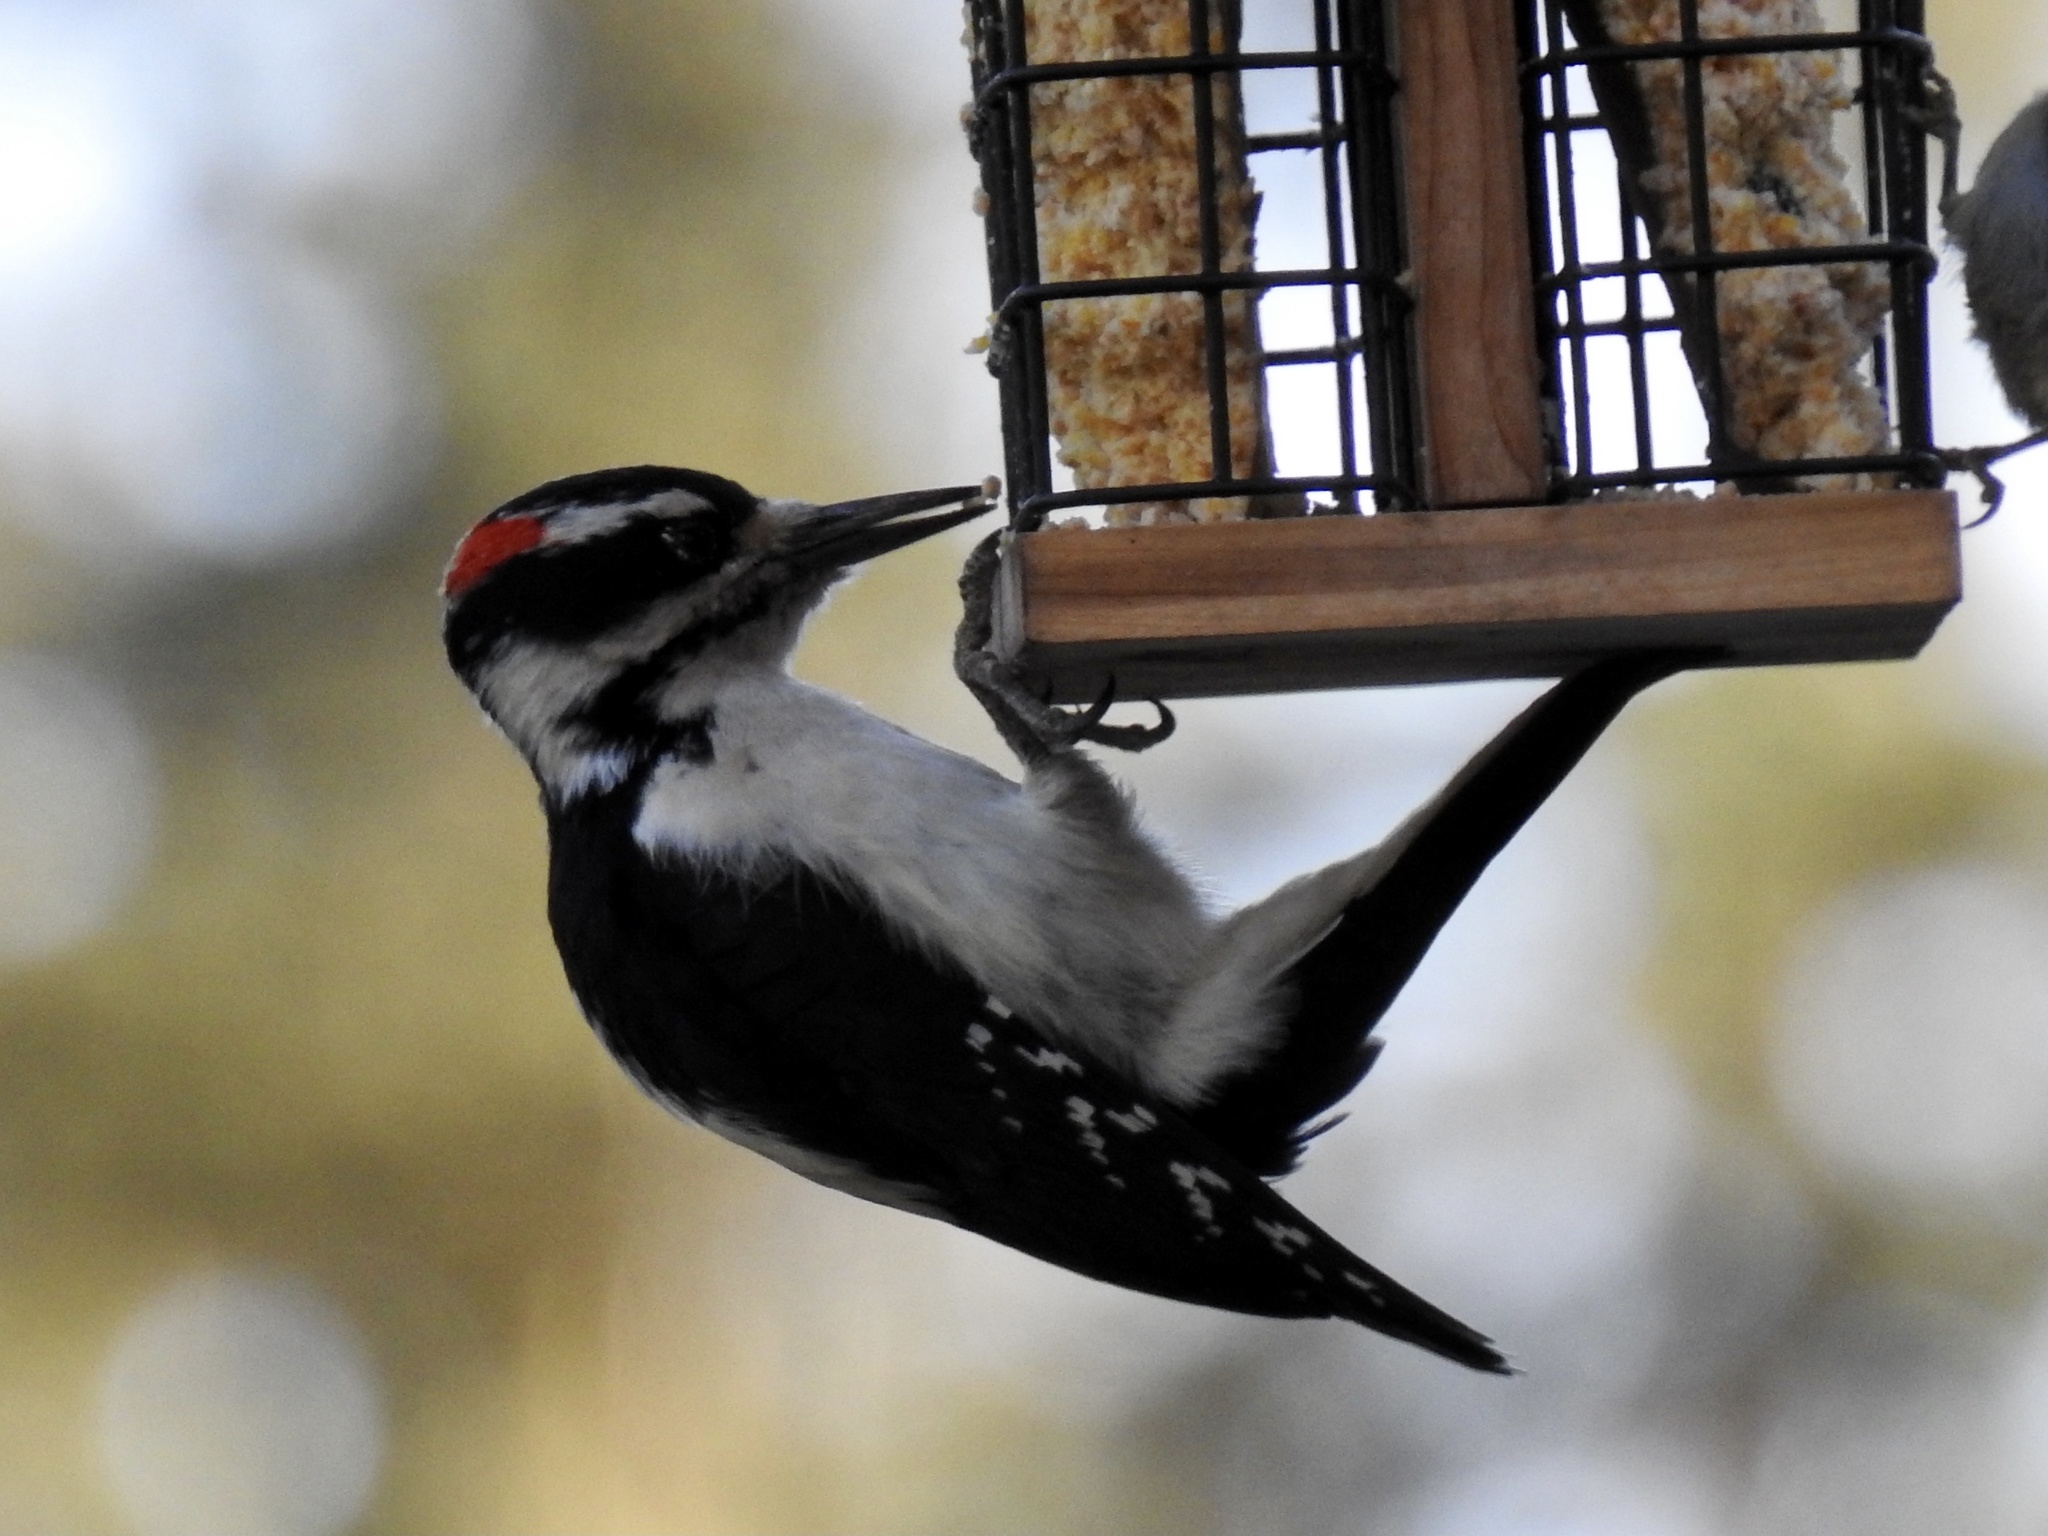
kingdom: Animalia
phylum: Chordata
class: Aves
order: Piciformes
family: Picidae
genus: Leuconotopicus
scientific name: Leuconotopicus villosus
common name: Hairy woodpecker
